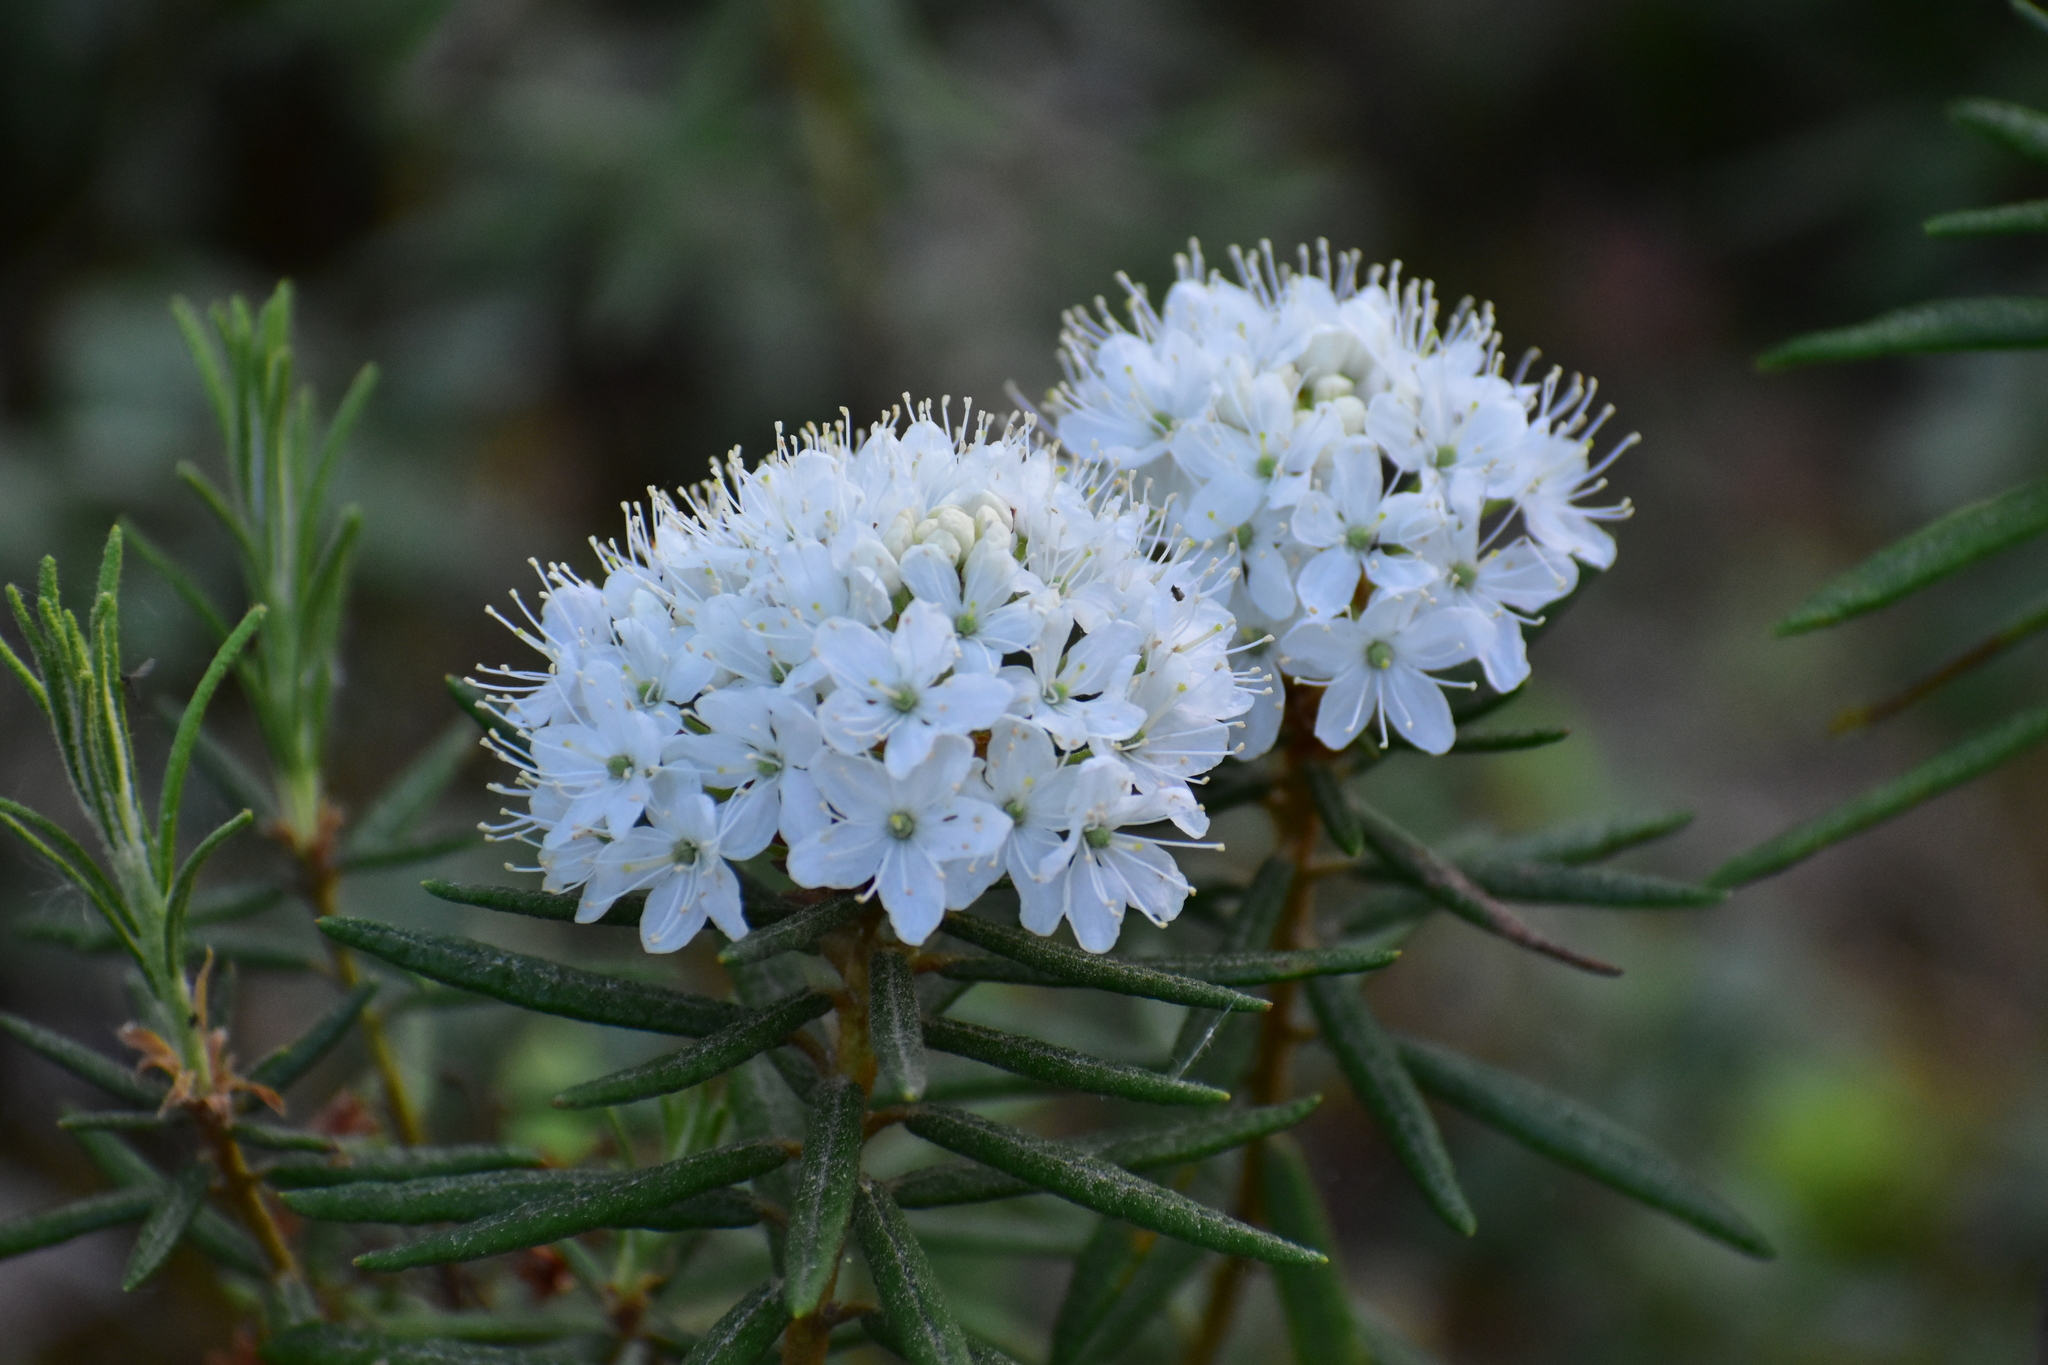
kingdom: Plantae
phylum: Tracheophyta
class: Magnoliopsida
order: Ericales
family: Ericaceae
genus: Rhododendron
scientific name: Rhododendron tomentosum
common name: Marsh labrador tea
